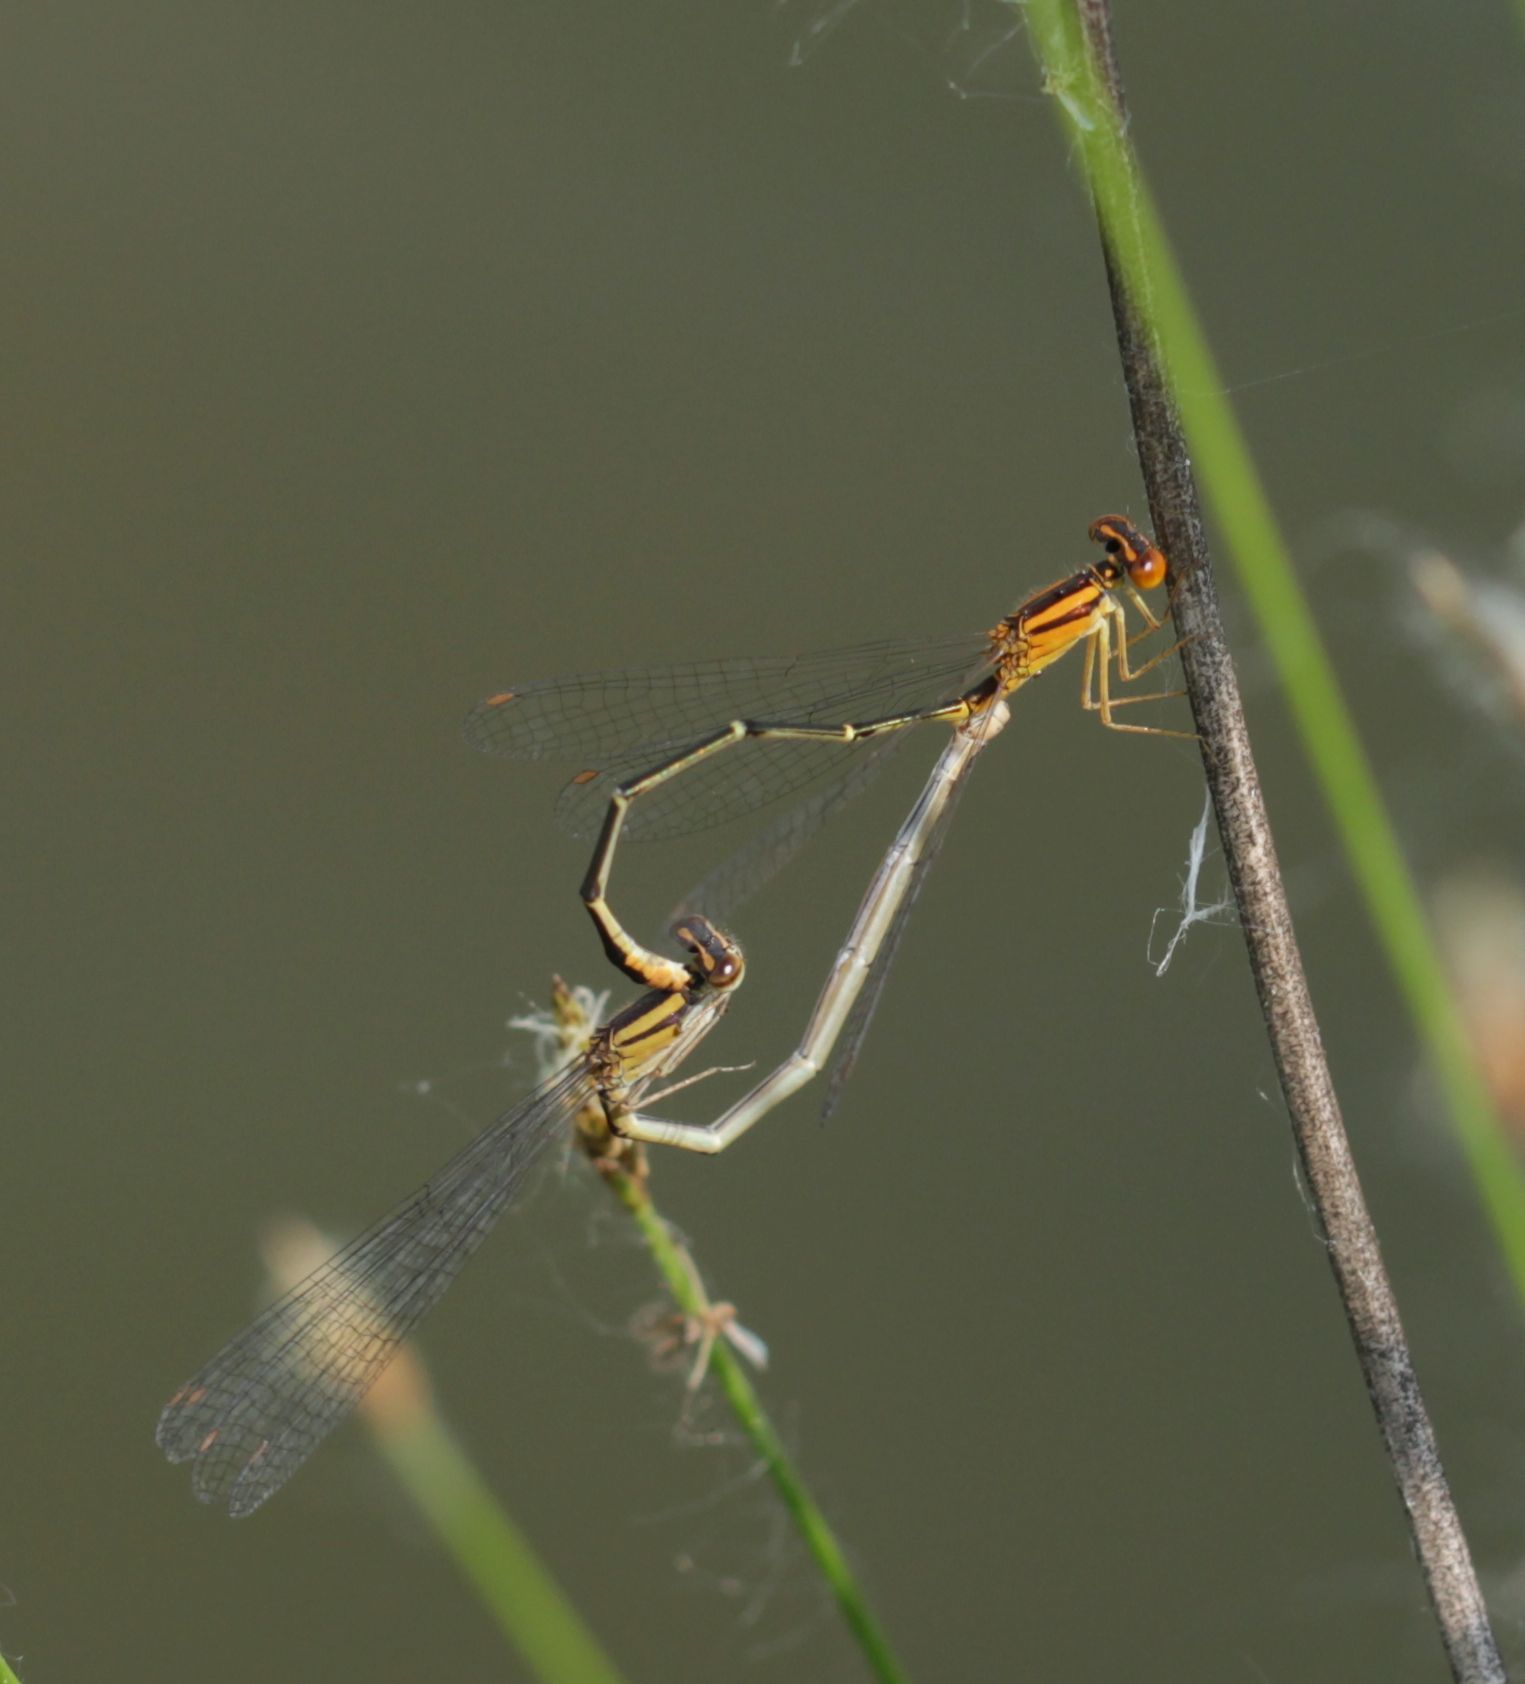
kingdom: Animalia
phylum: Arthropoda
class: Insecta
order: Odonata
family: Coenagrionidae
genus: Enallagma
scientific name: Enallagma signatum
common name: Orange bluet
